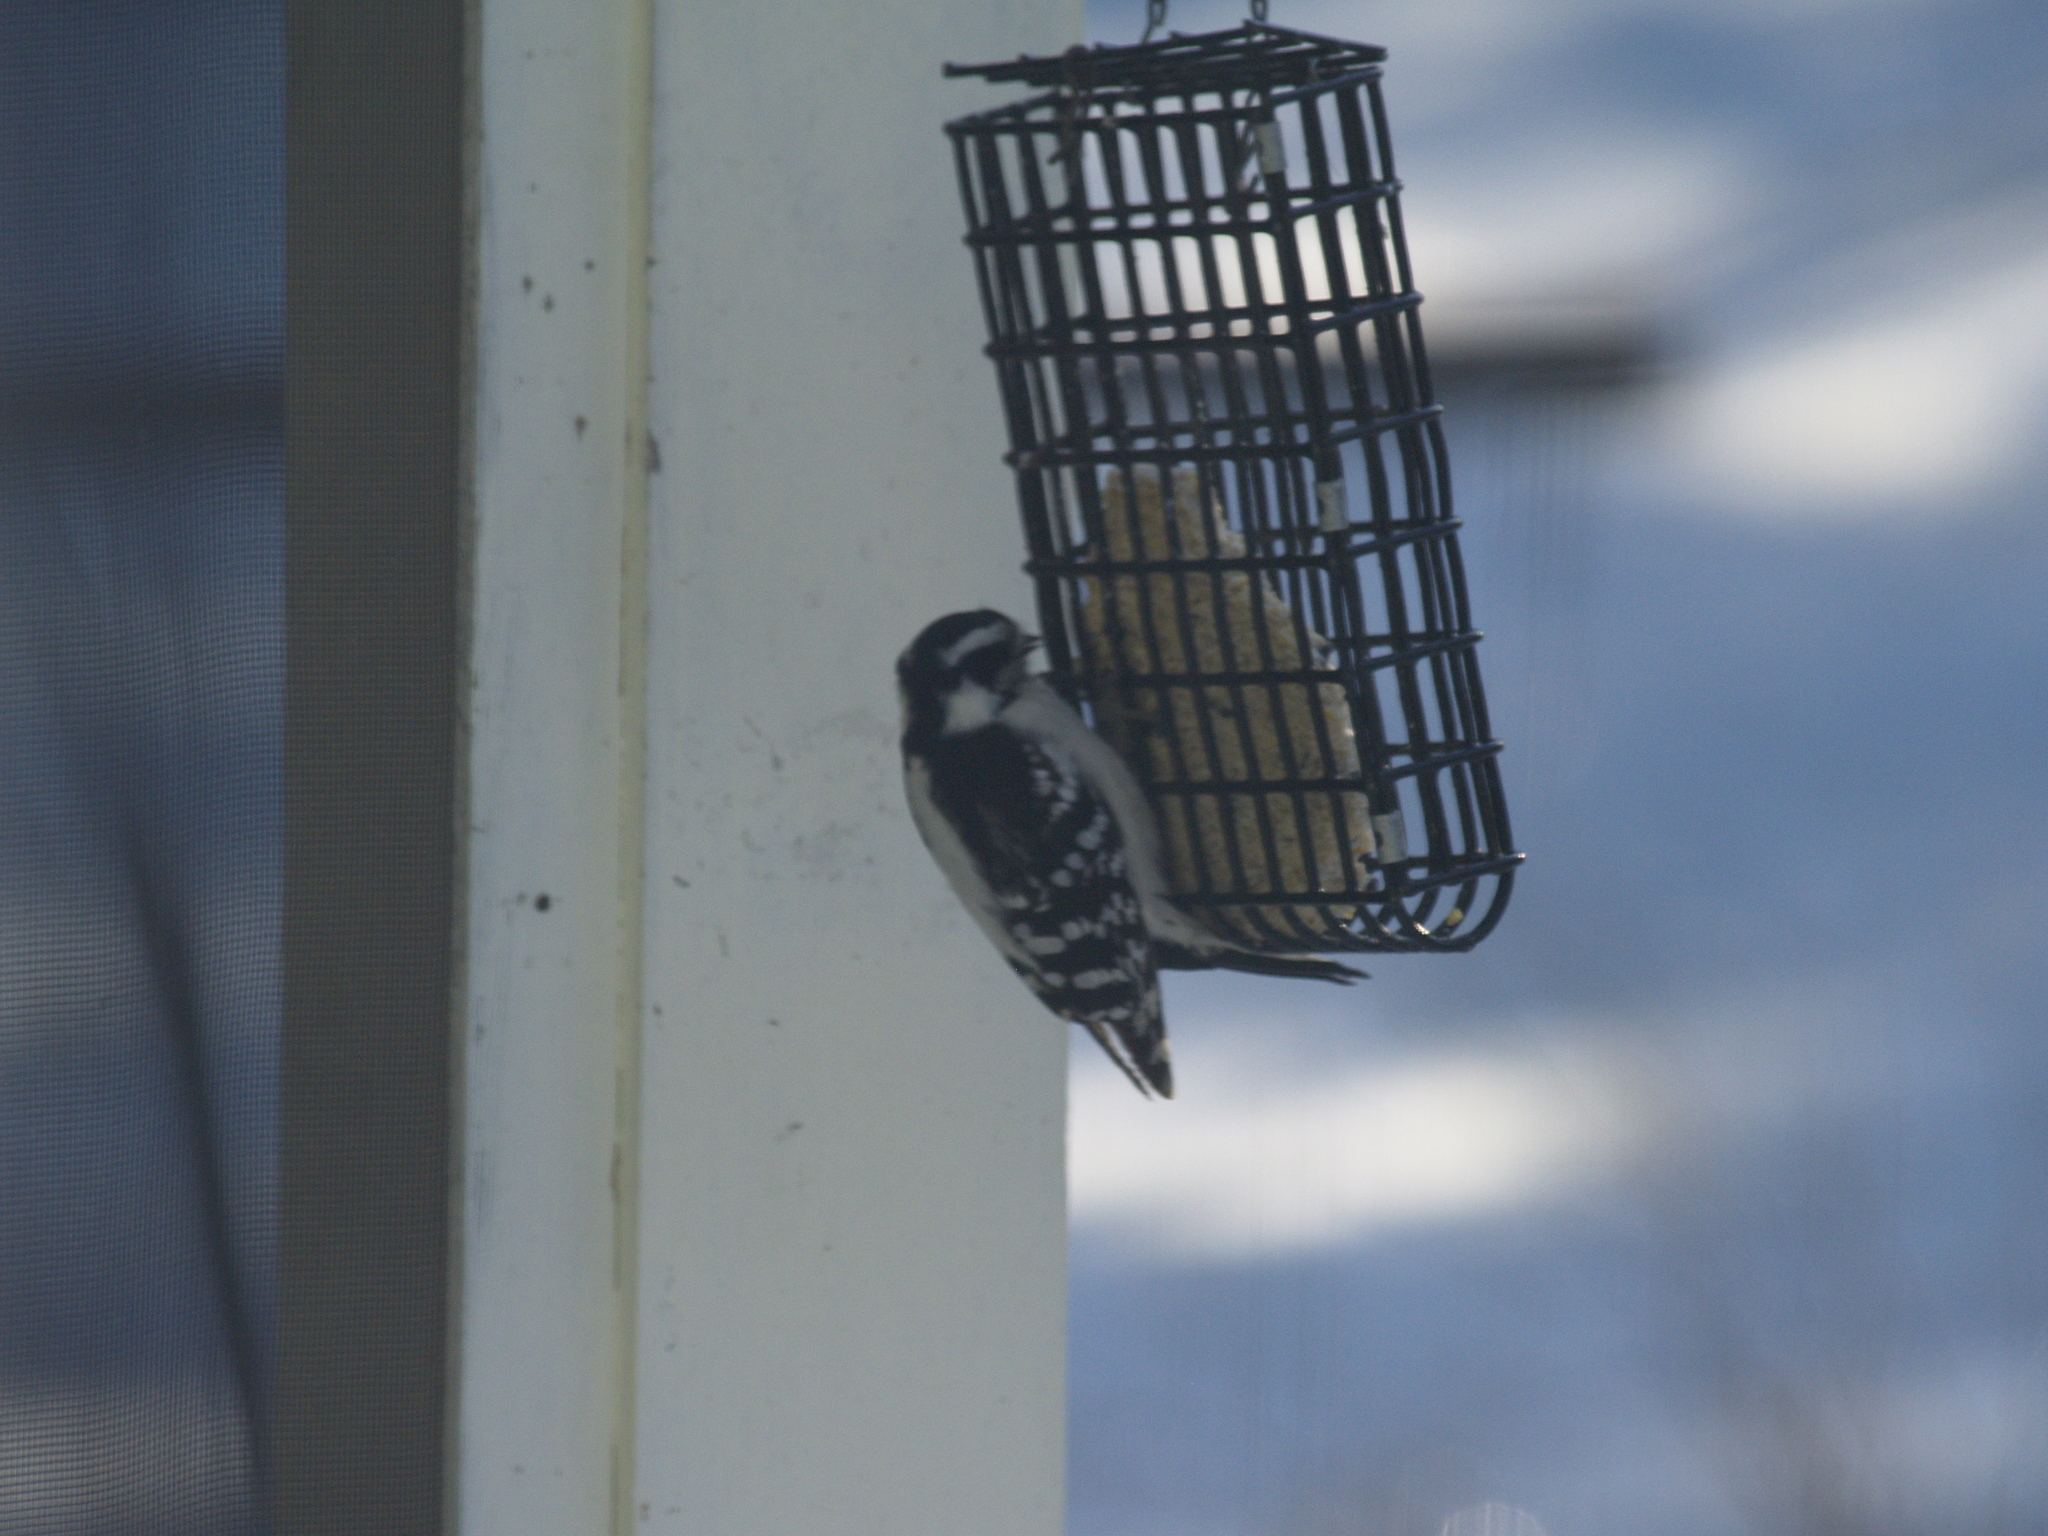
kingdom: Animalia
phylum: Chordata
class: Aves
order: Piciformes
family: Picidae
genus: Dryobates
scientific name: Dryobates pubescens
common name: Downy woodpecker
